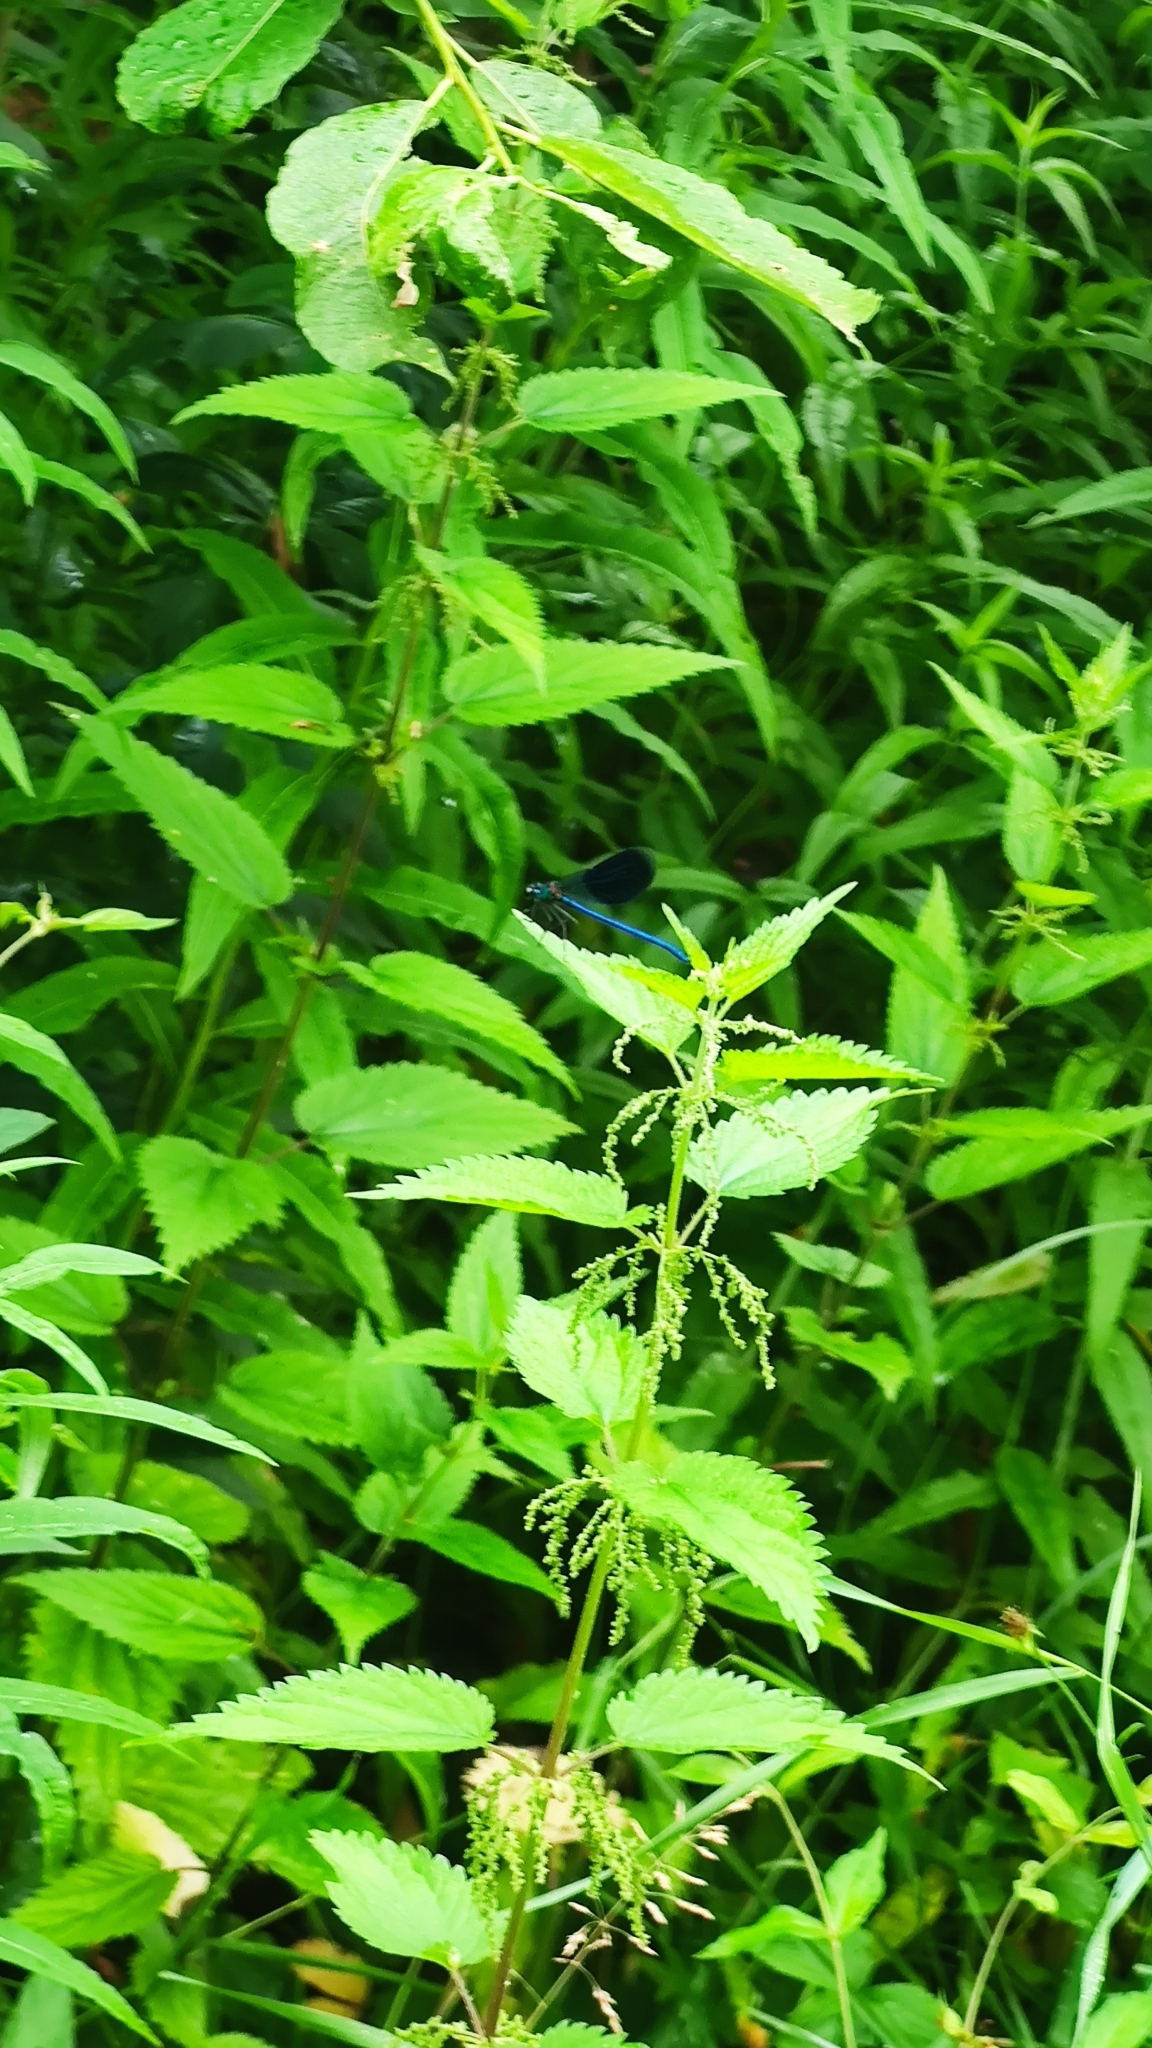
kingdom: Animalia
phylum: Arthropoda
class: Insecta
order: Odonata
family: Calopterygidae
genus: Calopteryx
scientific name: Calopteryx splendens
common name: Banded demoiselle
